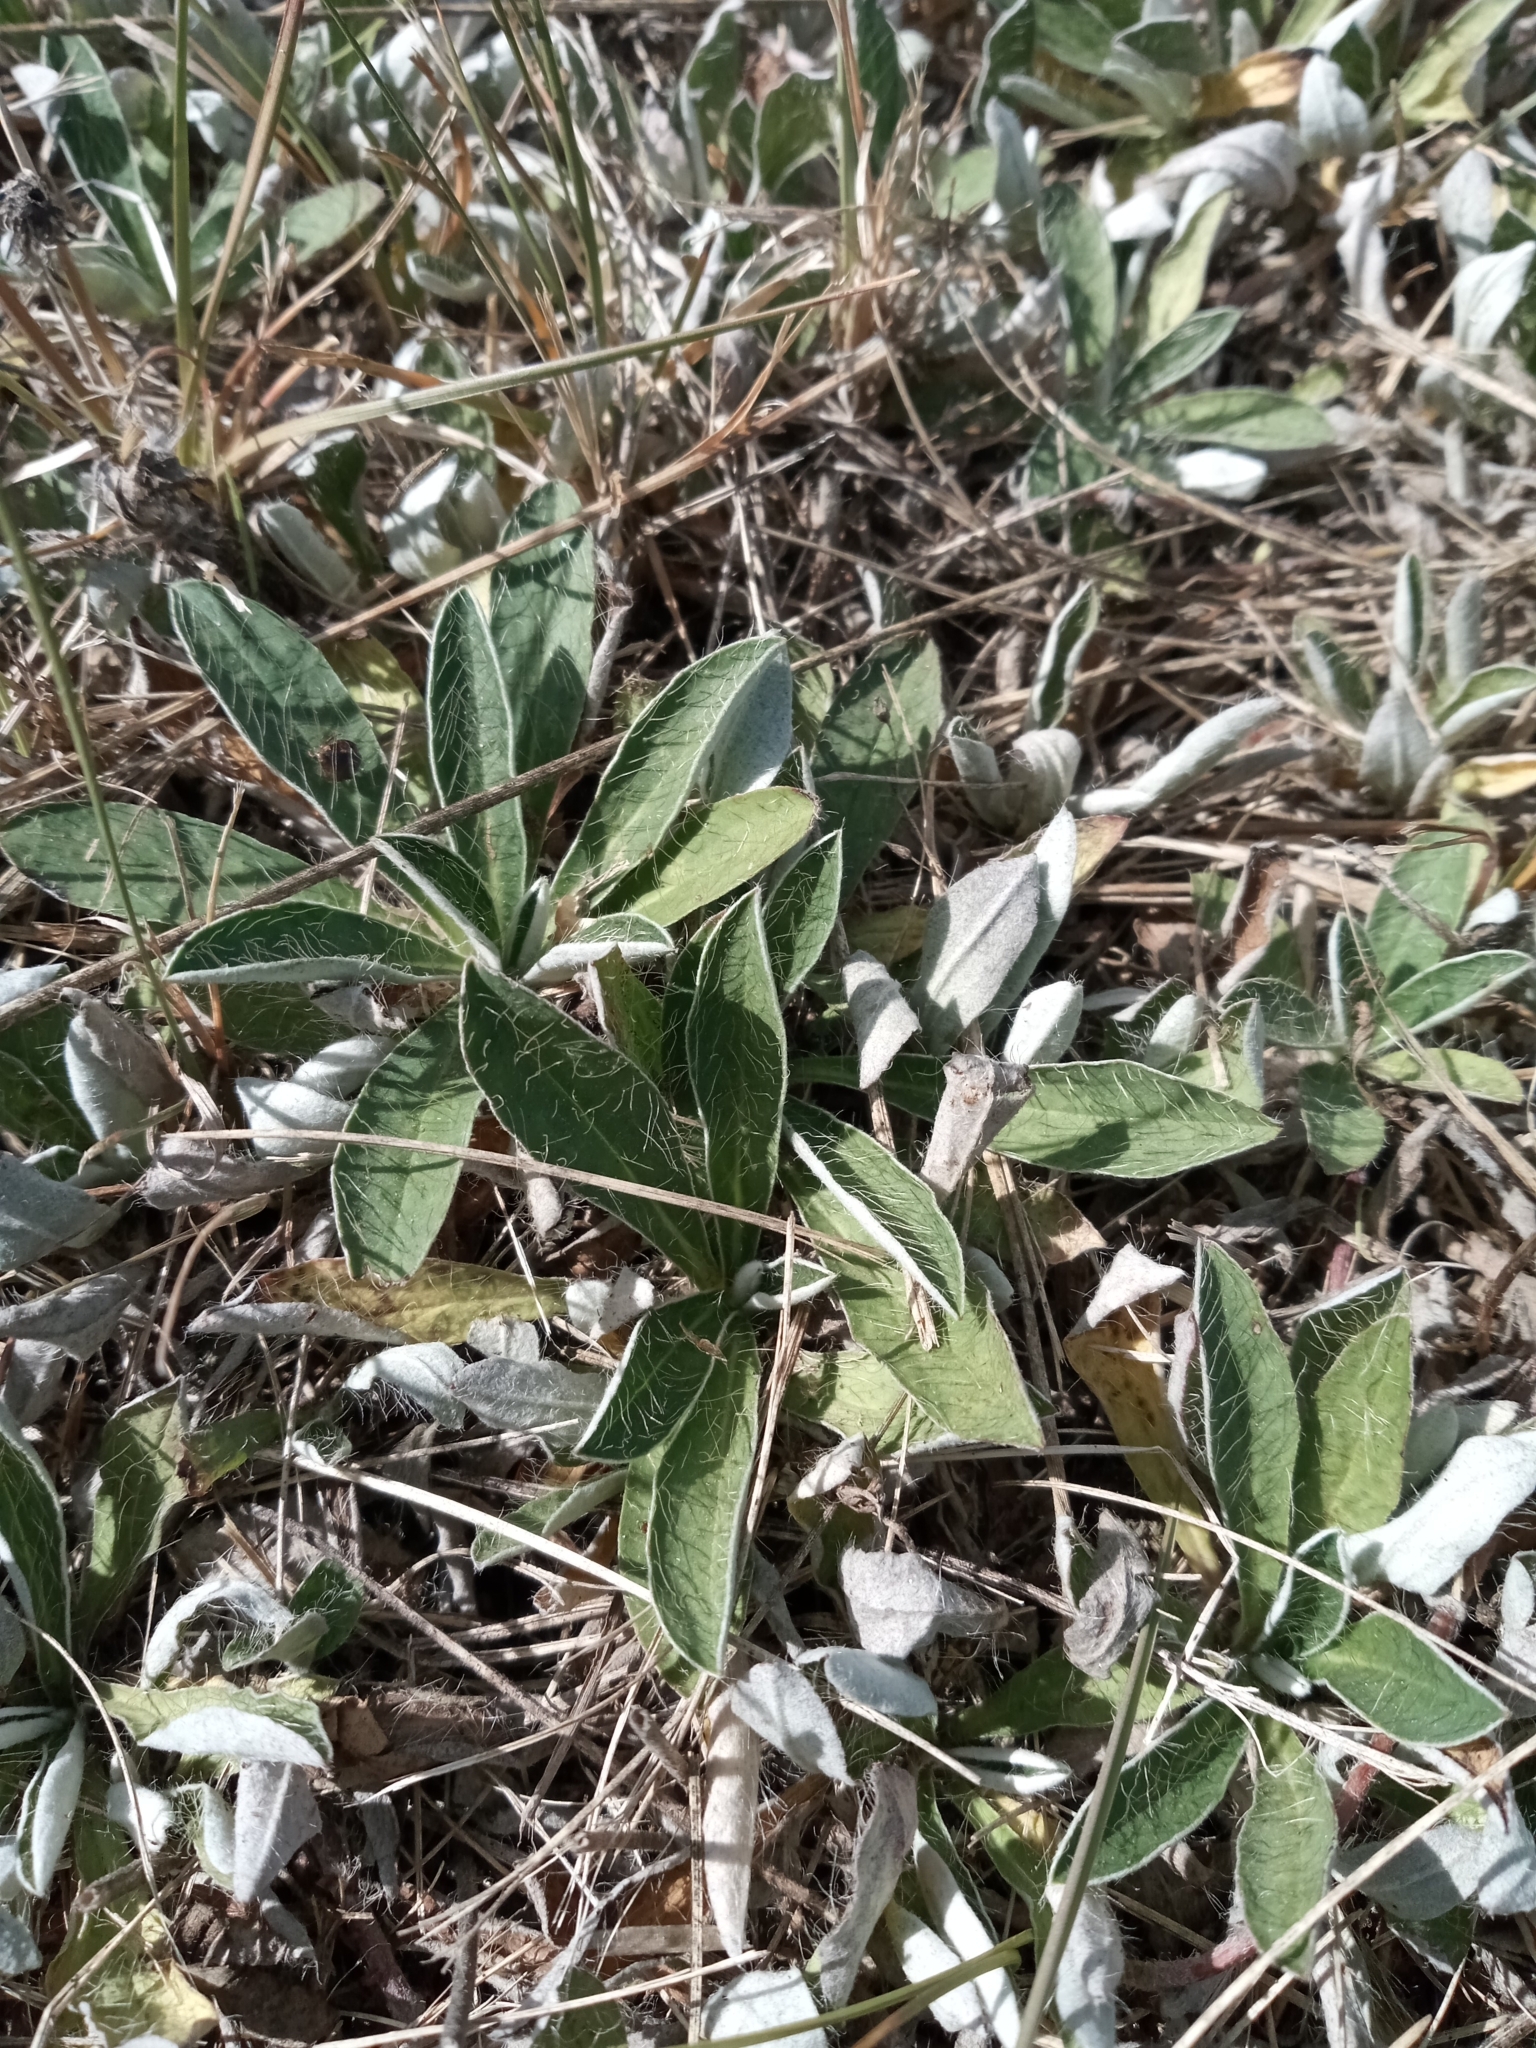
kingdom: Plantae
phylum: Tracheophyta
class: Magnoliopsida
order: Asterales
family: Asteraceae
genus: Pilosella
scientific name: Pilosella officinarum
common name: Mouse-ear hawkweed
